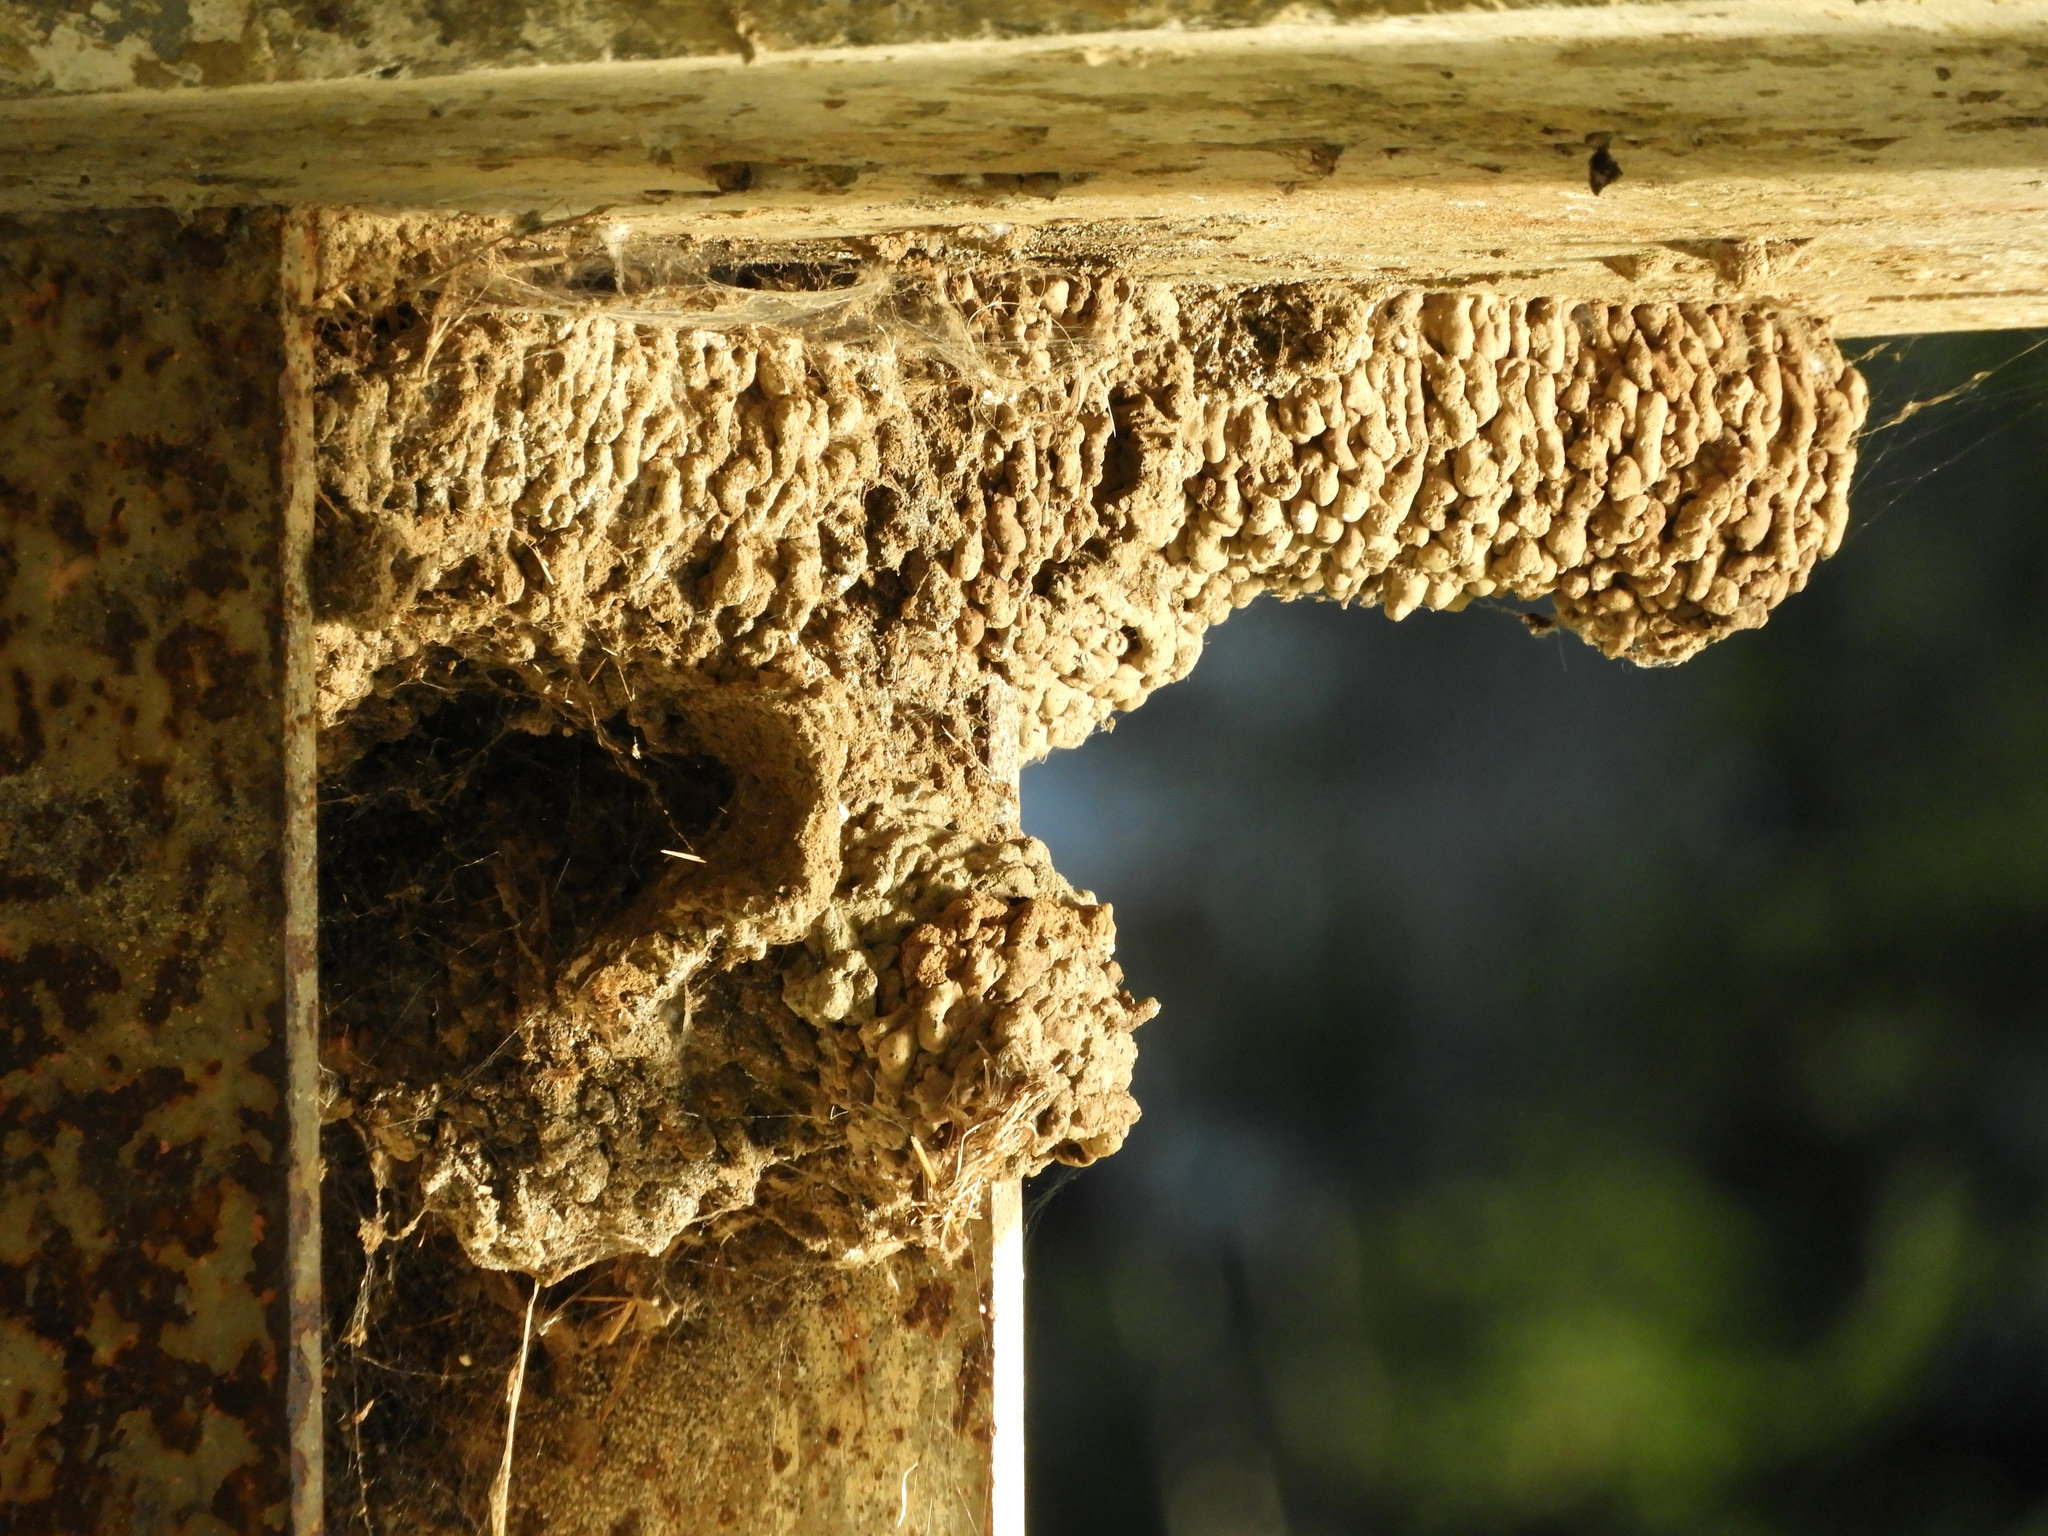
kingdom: Animalia
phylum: Chordata
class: Aves
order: Passeriformes
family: Hirundinidae
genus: Petrochelidon
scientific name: Petrochelidon pyrrhonota
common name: American cliff swallow
